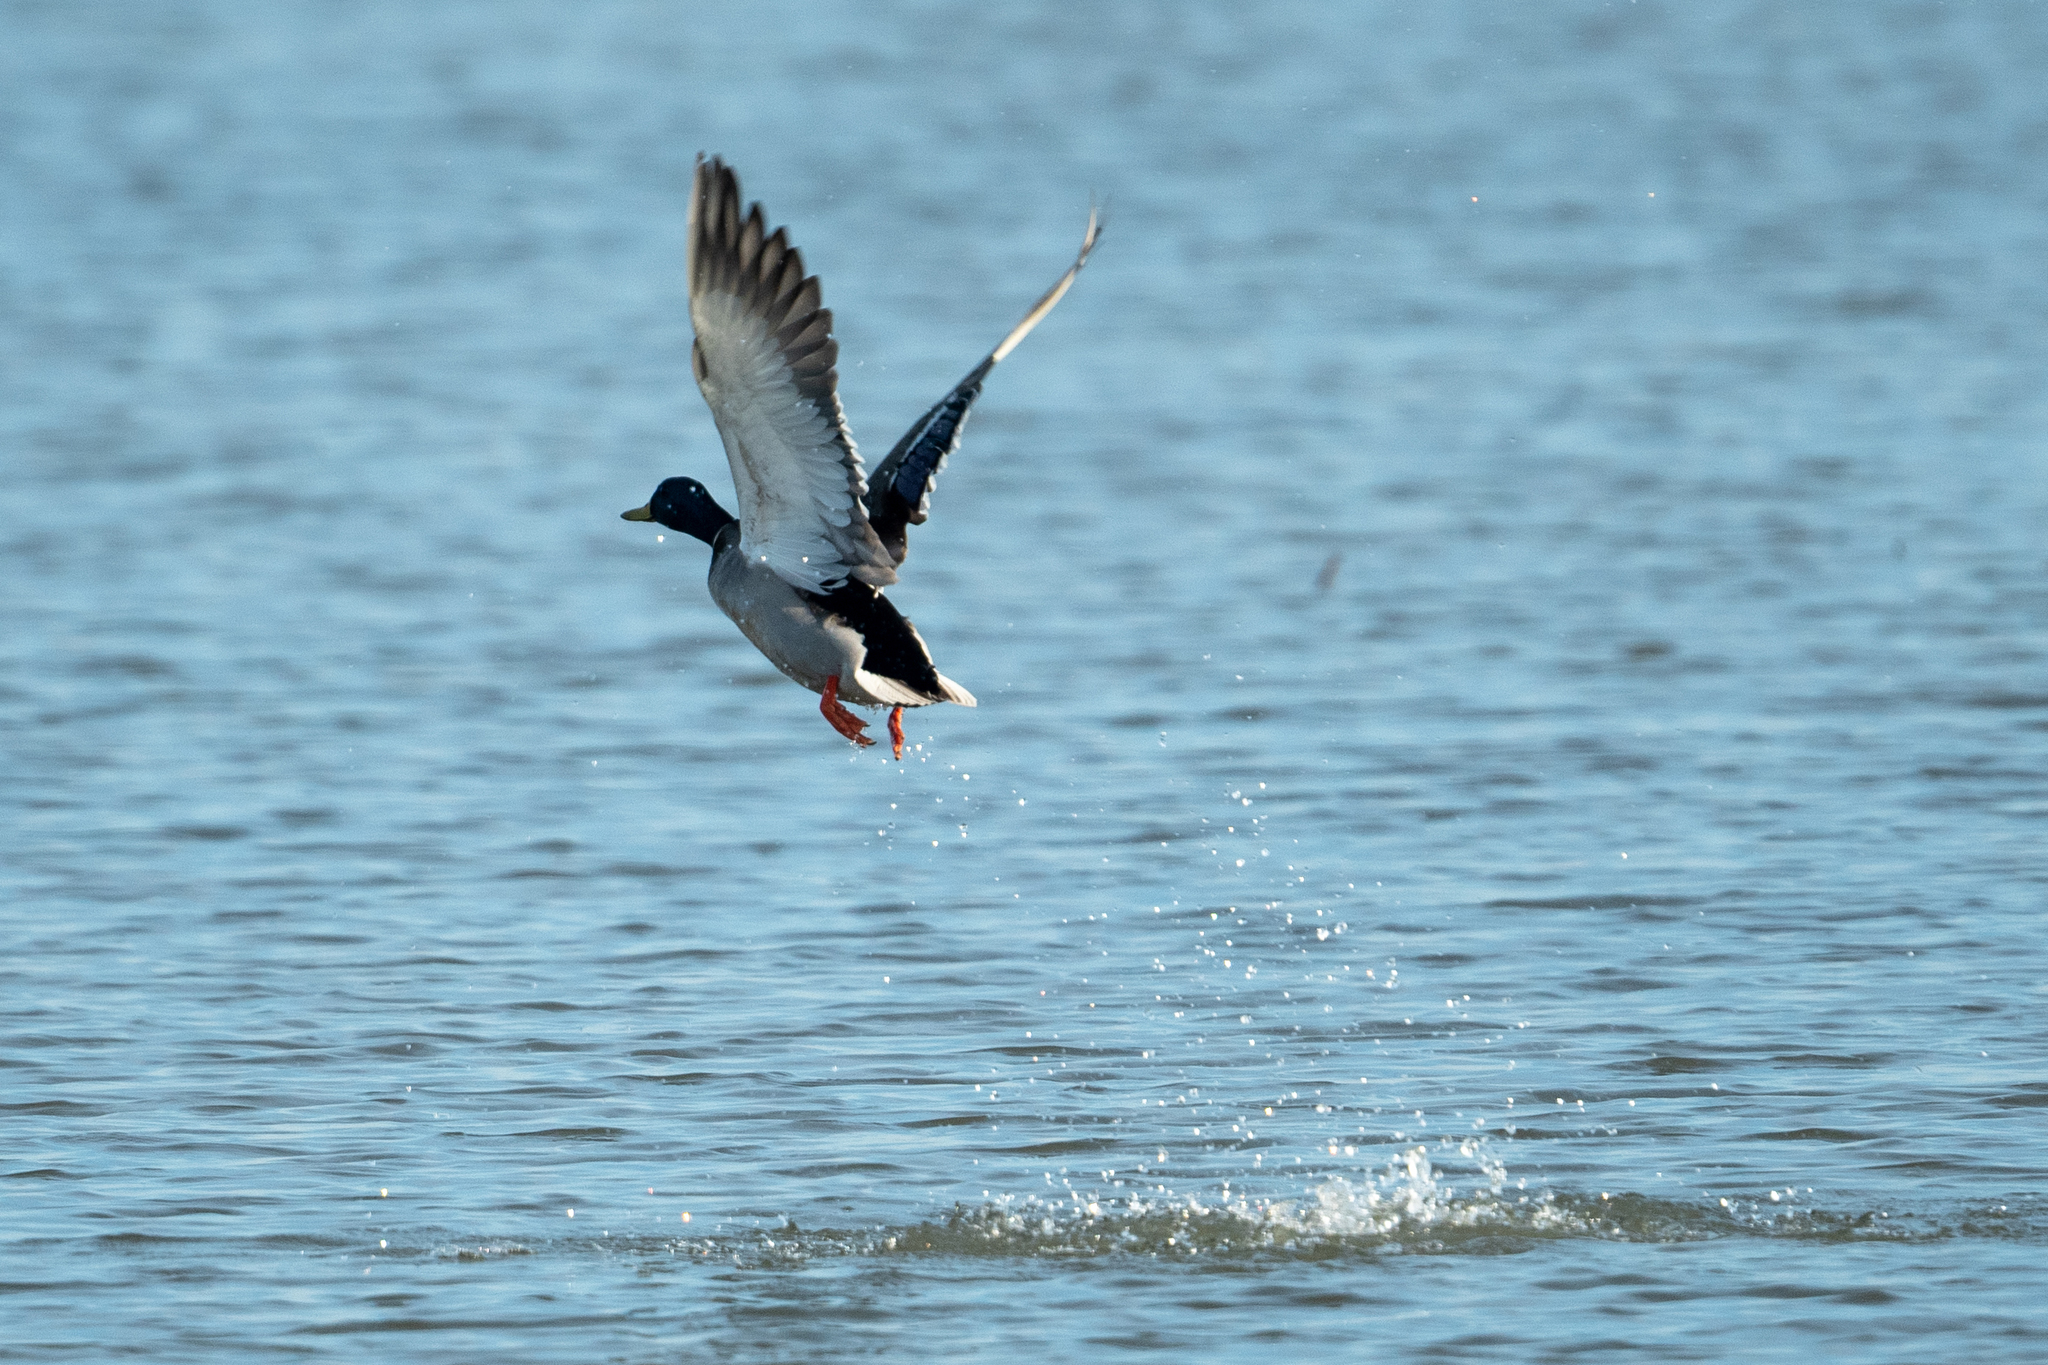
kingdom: Animalia
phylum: Chordata
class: Aves
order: Anseriformes
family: Anatidae
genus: Anas
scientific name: Anas platyrhynchos
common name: Mallard
